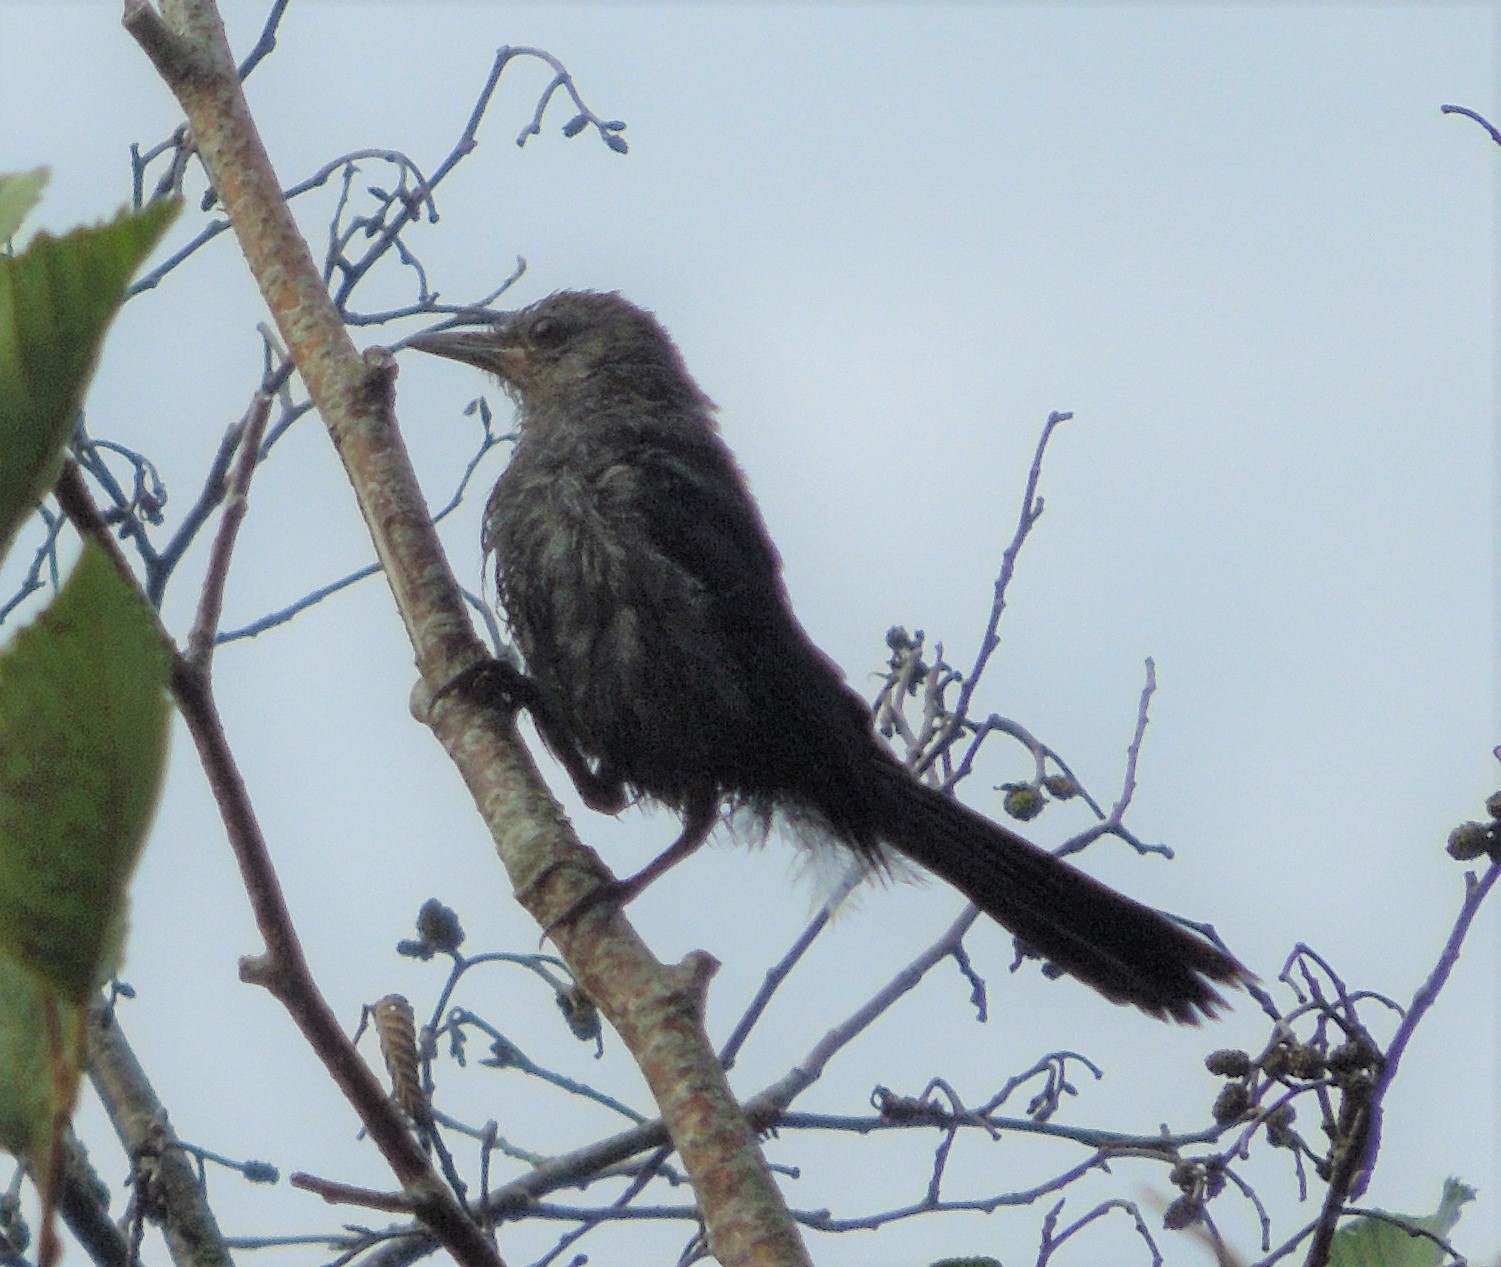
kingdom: Animalia
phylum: Chordata
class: Aves
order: Passeriformes
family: Mimidae
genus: Dumetella
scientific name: Dumetella carolinensis
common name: Gray catbird
